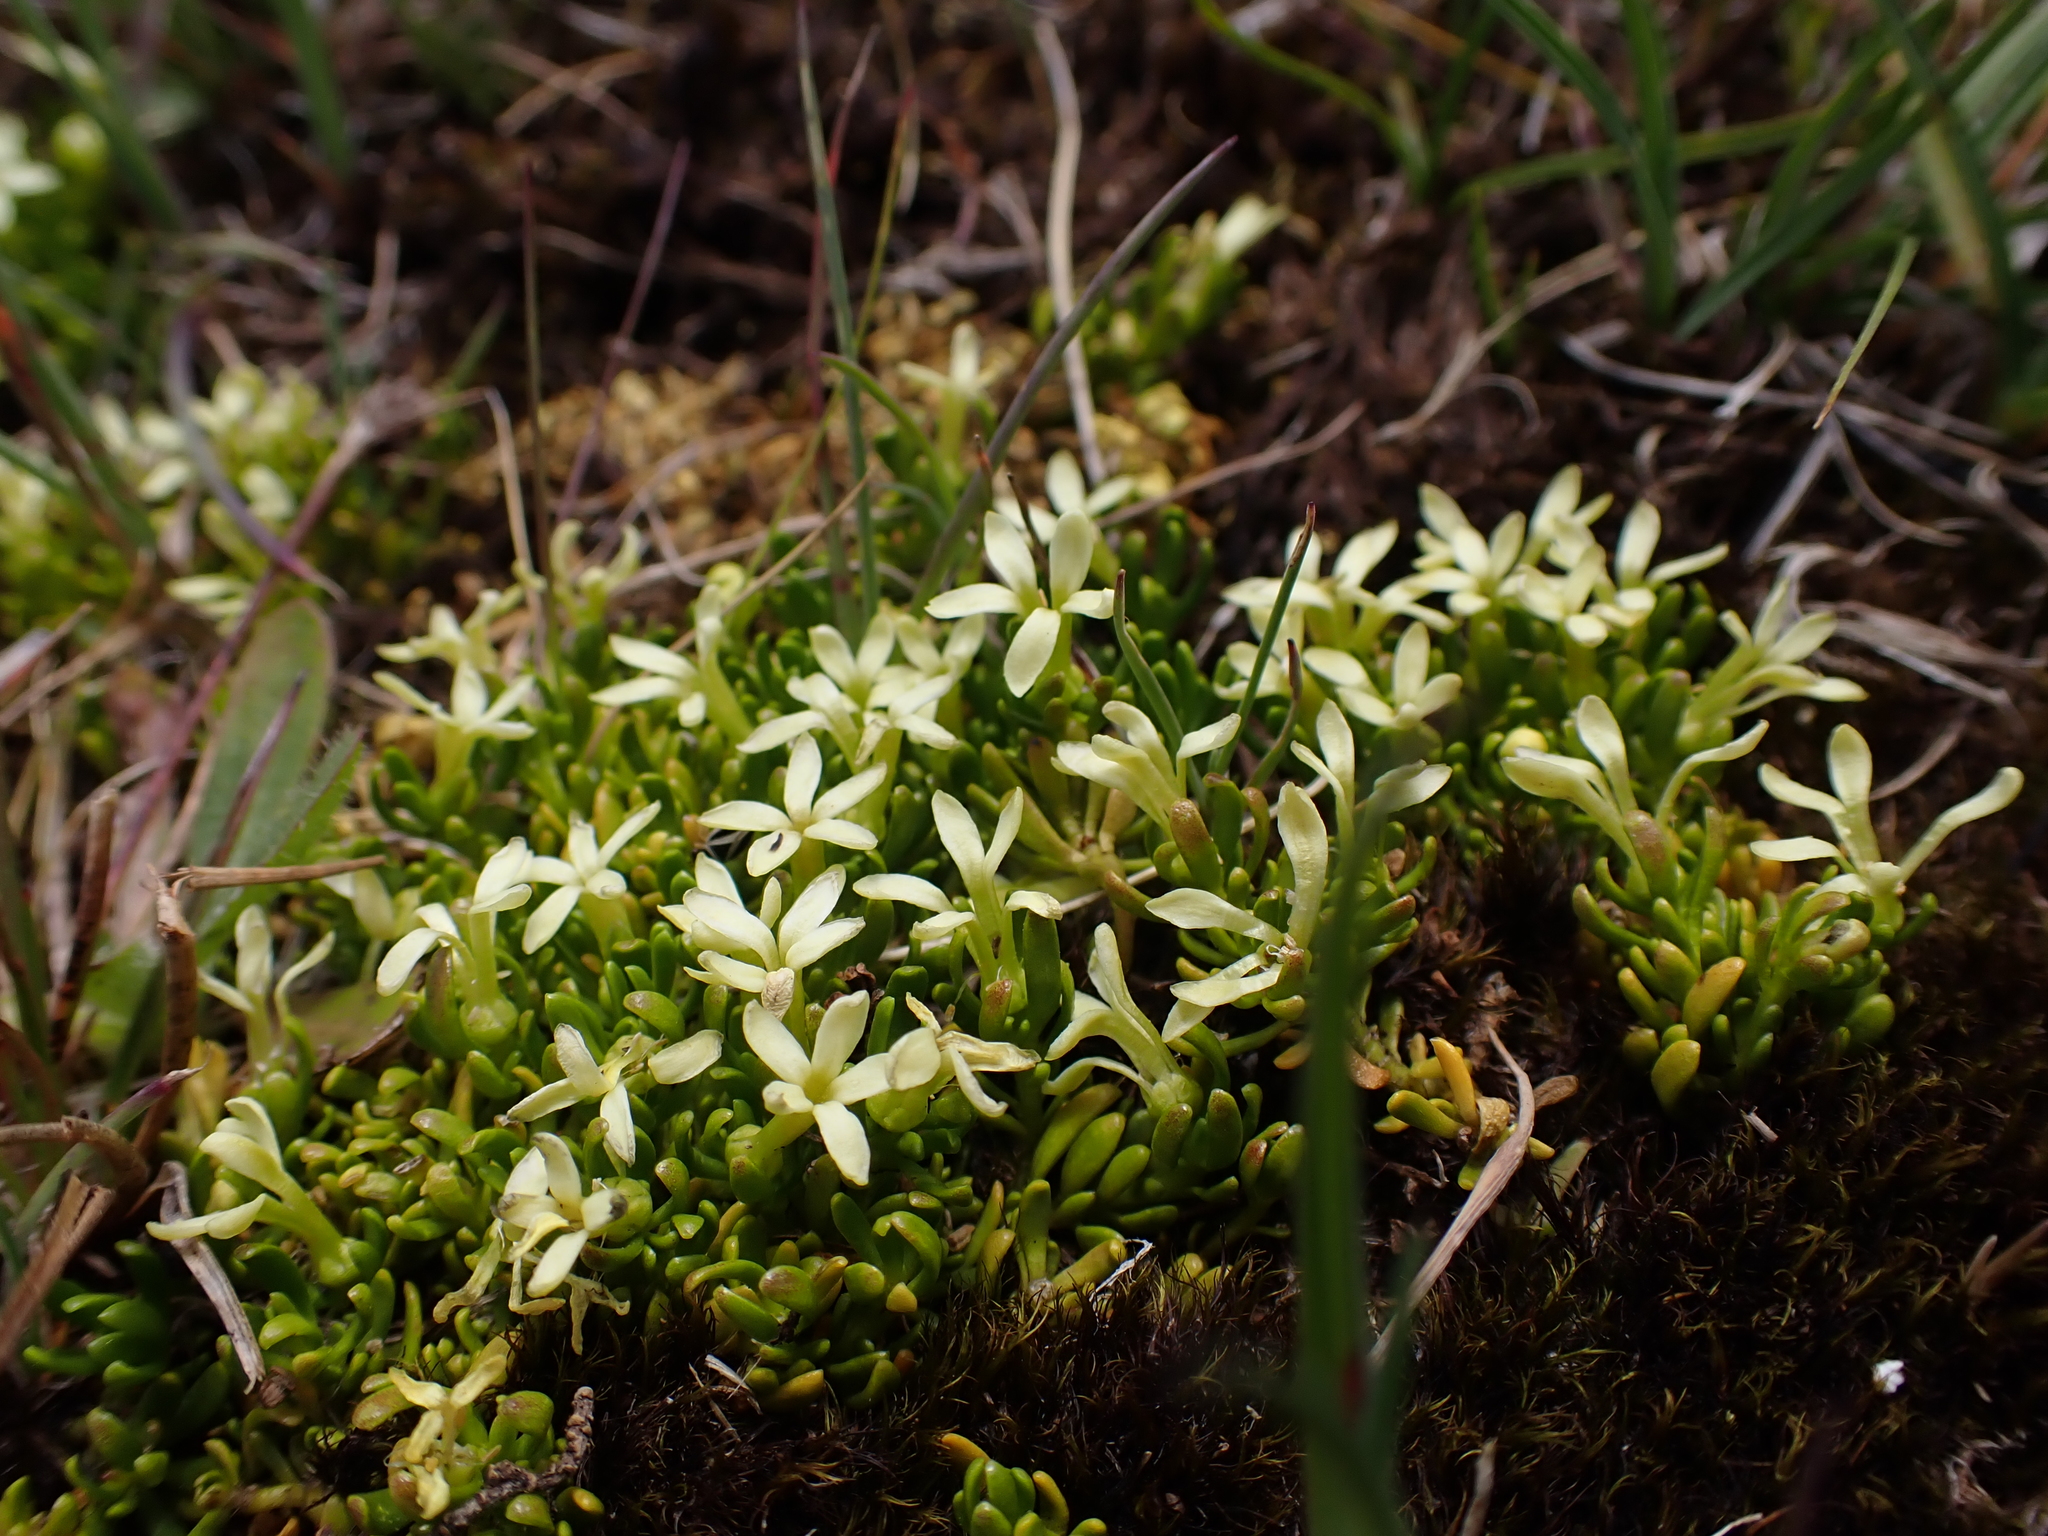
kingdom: Plantae
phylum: Tracheophyta
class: Magnoliopsida
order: Celastrales
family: Celastraceae
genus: Stackhousia
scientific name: Stackhousia pulvinaris
